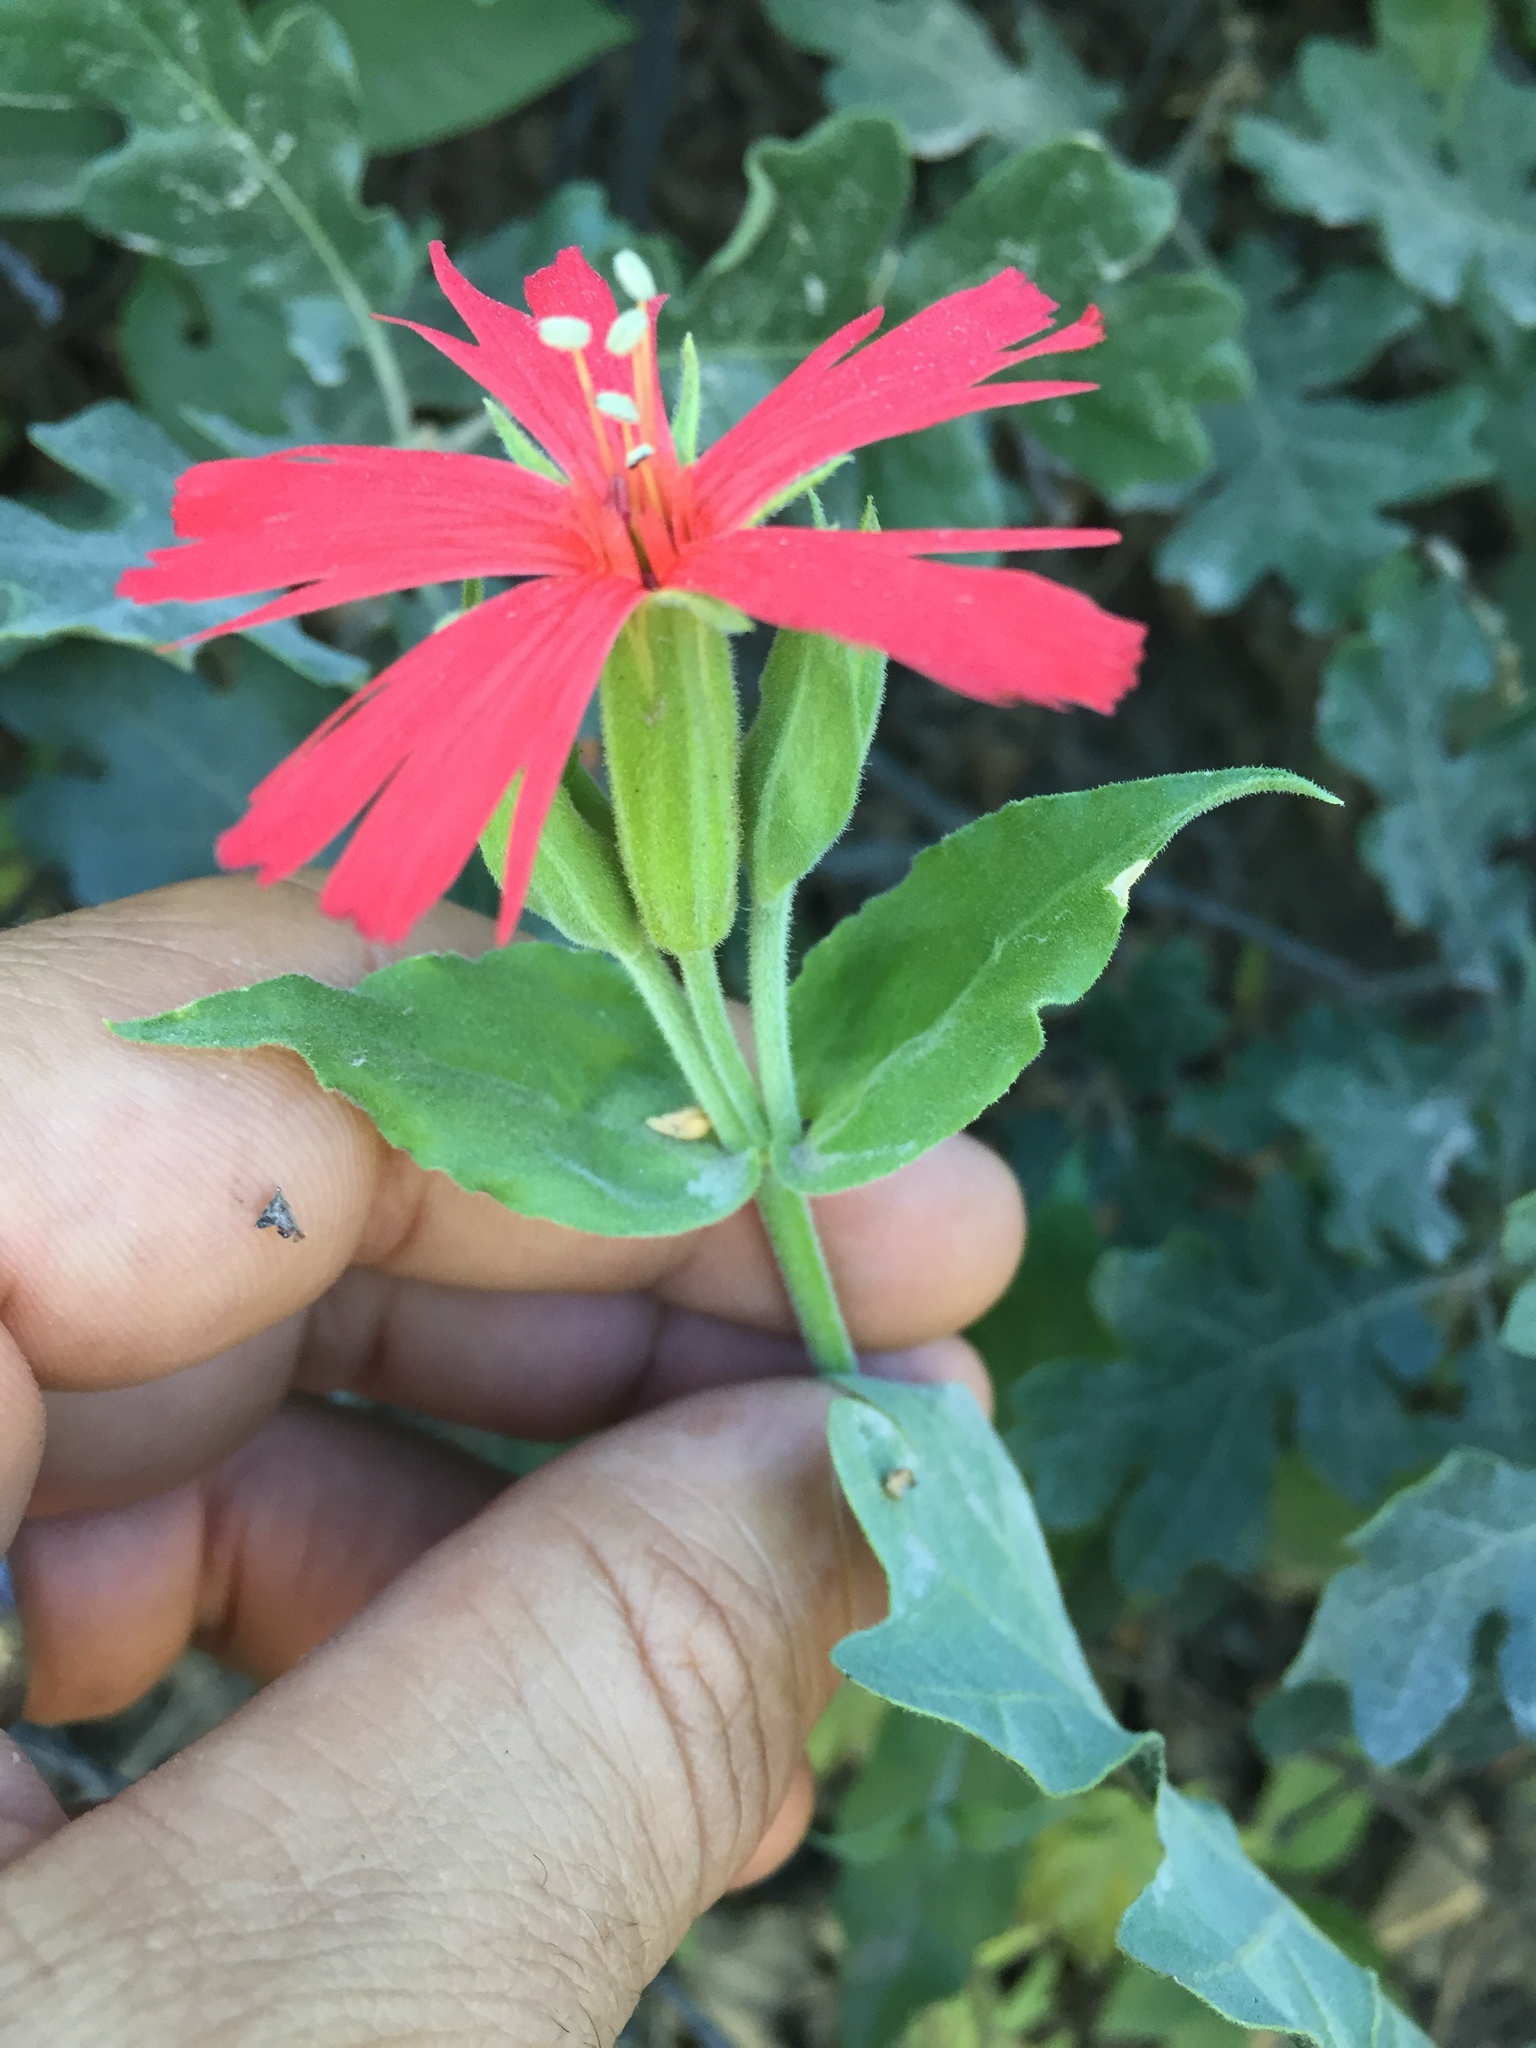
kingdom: Plantae
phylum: Tracheophyta
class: Magnoliopsida
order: Caryophyllales
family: Caryophyllaceae
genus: Silene
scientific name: Silene laciniata
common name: Indian-pink
